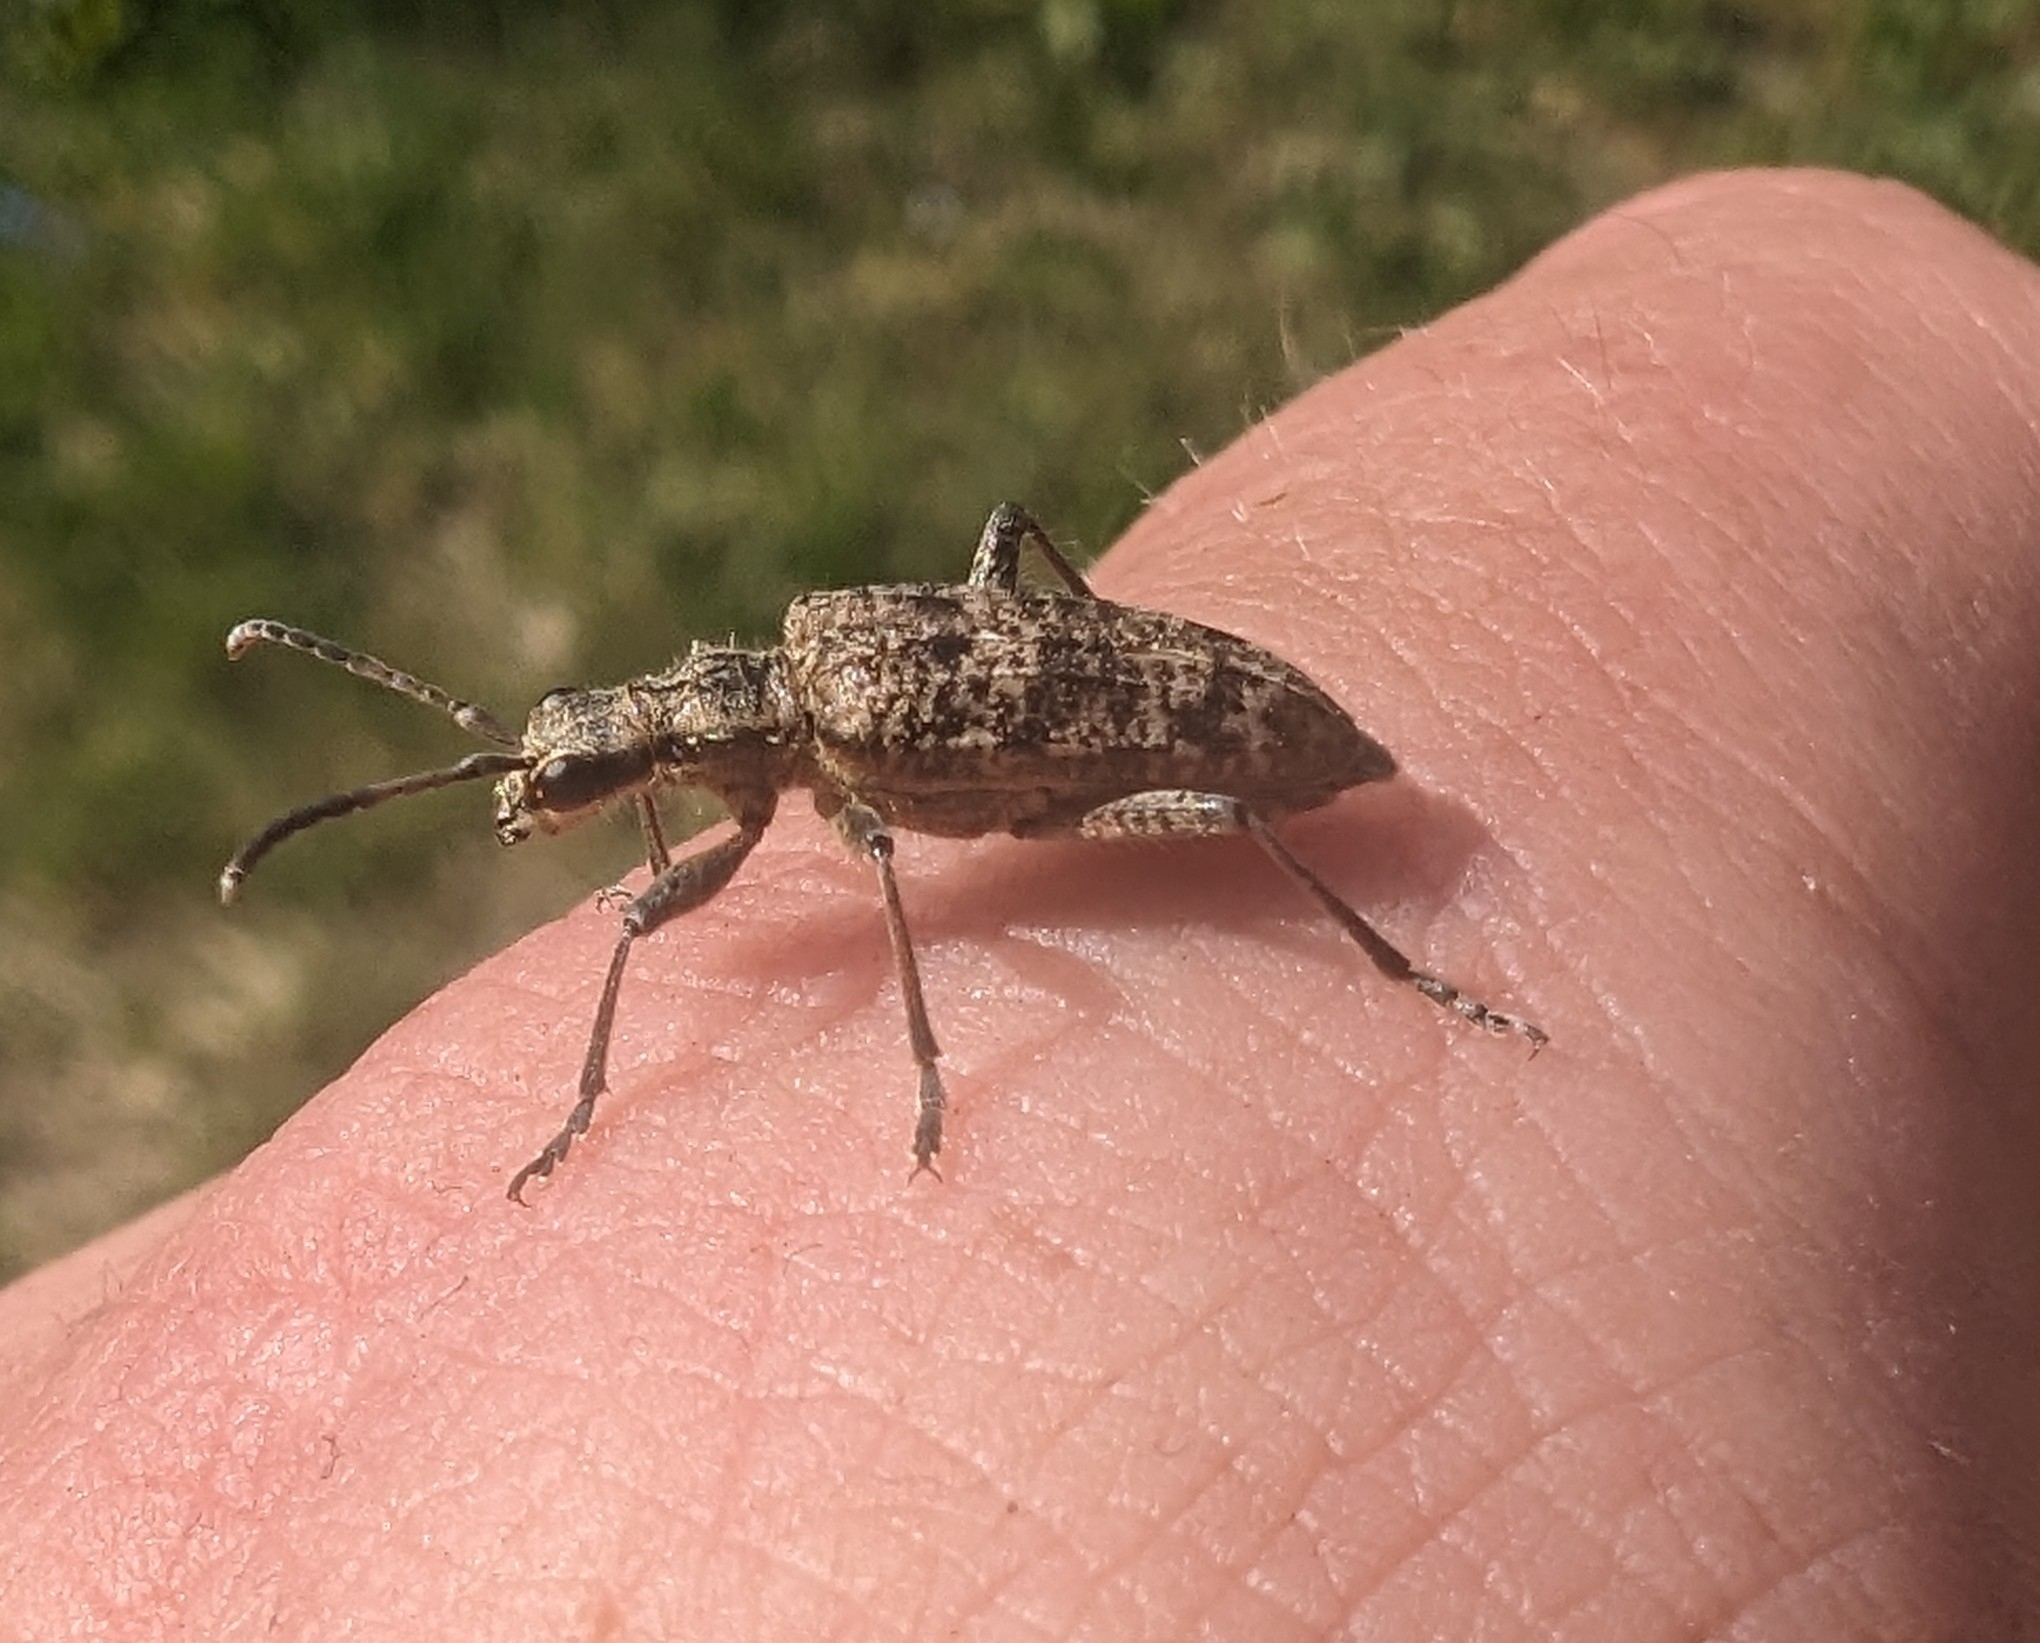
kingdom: Animalia
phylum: Arthropoda
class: Insecta
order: Coleoptera
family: Cerambycidae
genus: Rhagium
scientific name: Rhagium inquisitor
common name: Ribbed pine borer
